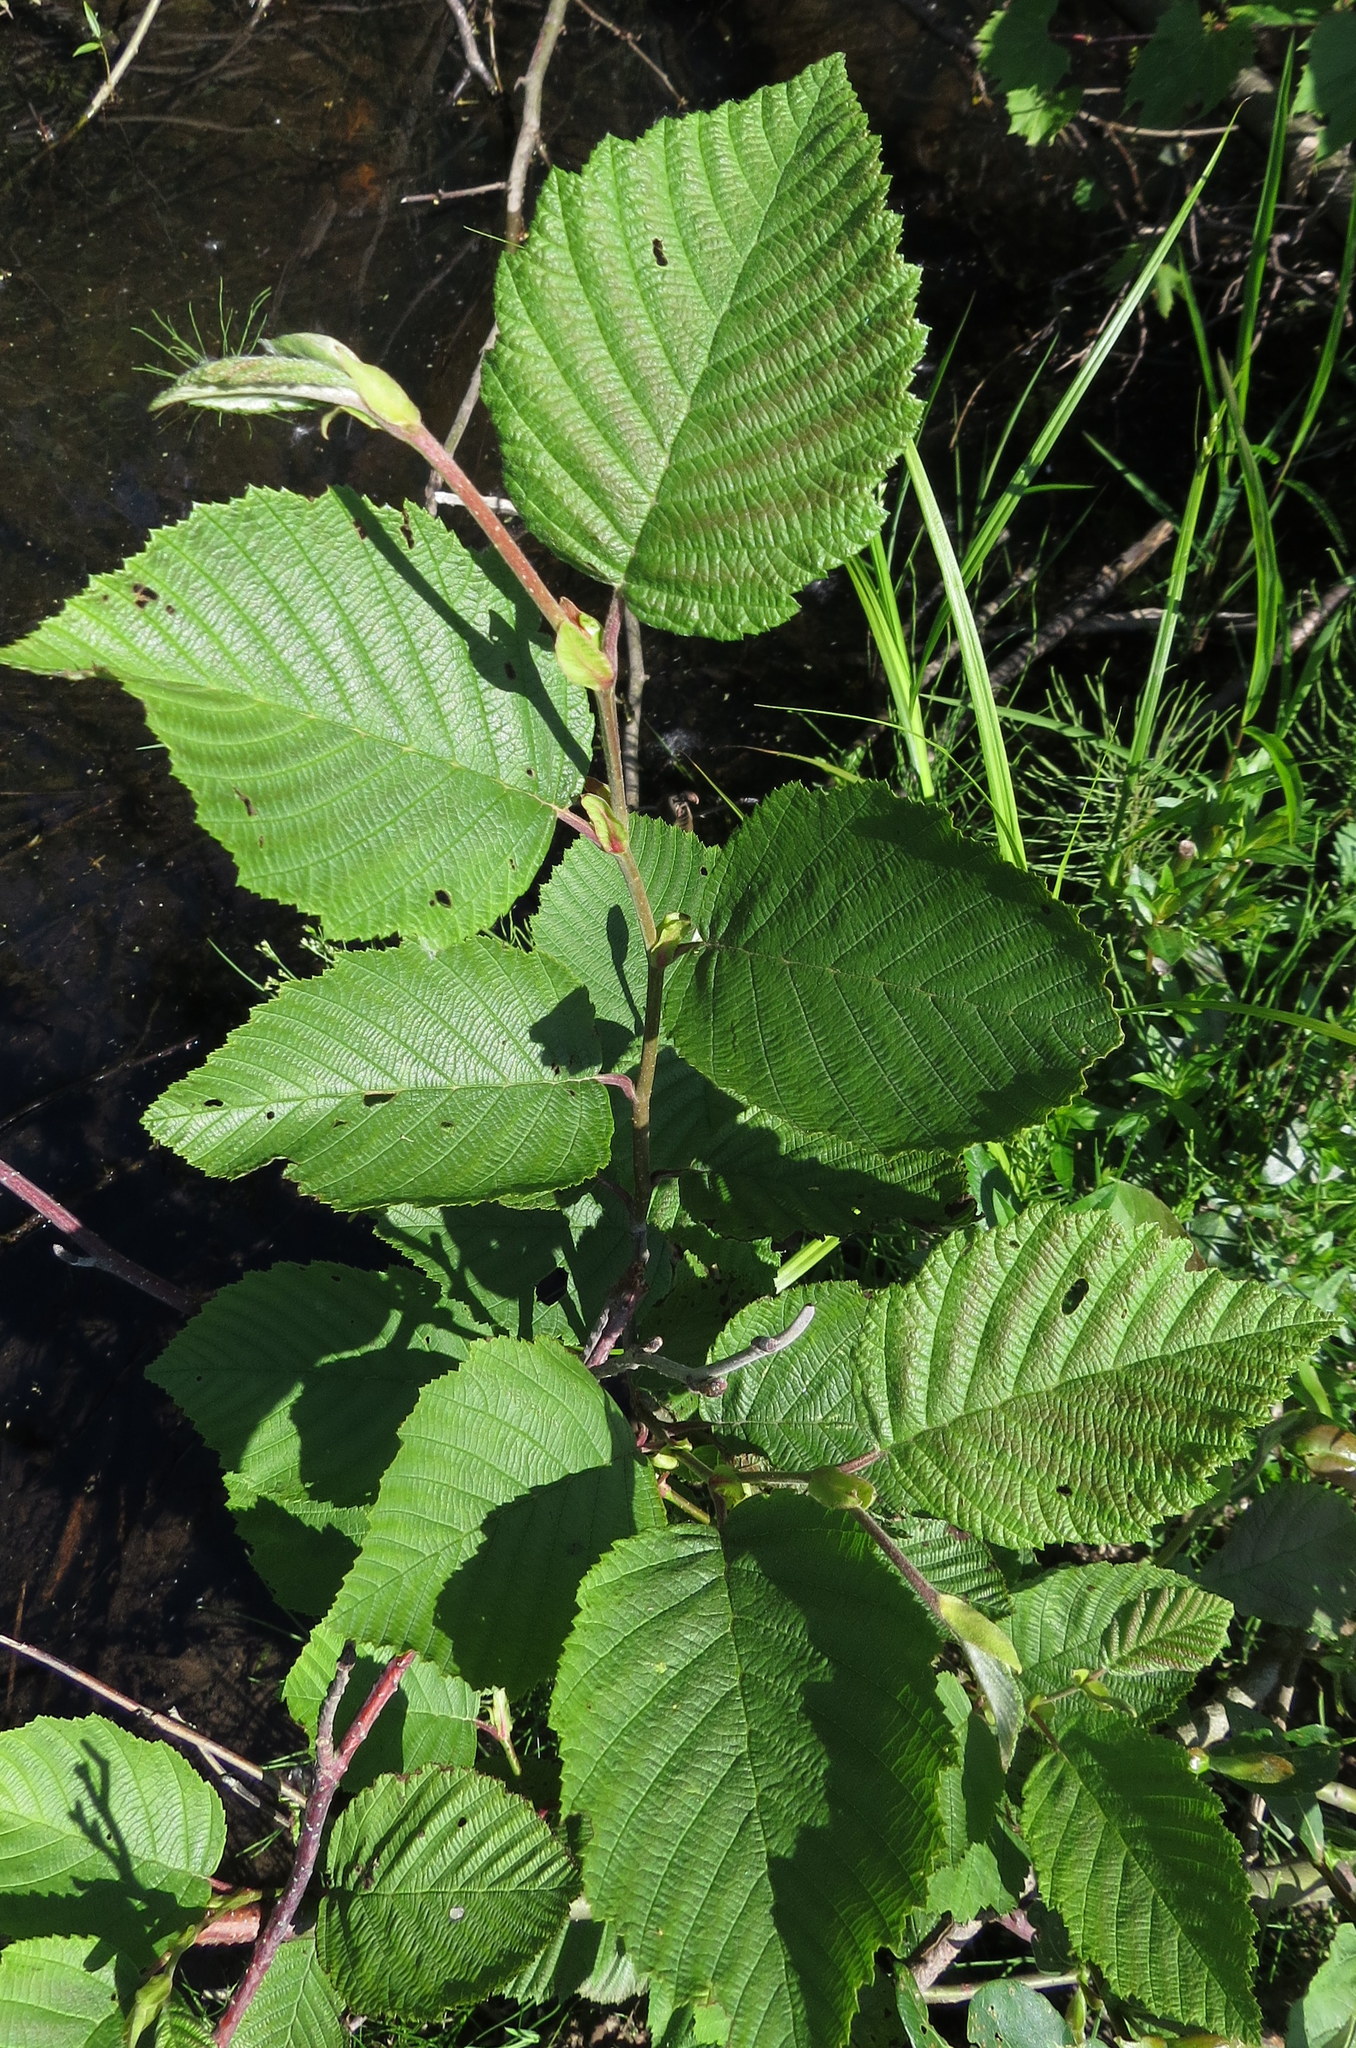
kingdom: Plantae
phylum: Tracheophyta
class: Magnoliopsida
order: Fagales
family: Betulaceae
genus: Alnus
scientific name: Alnus incana
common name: Grey alder
